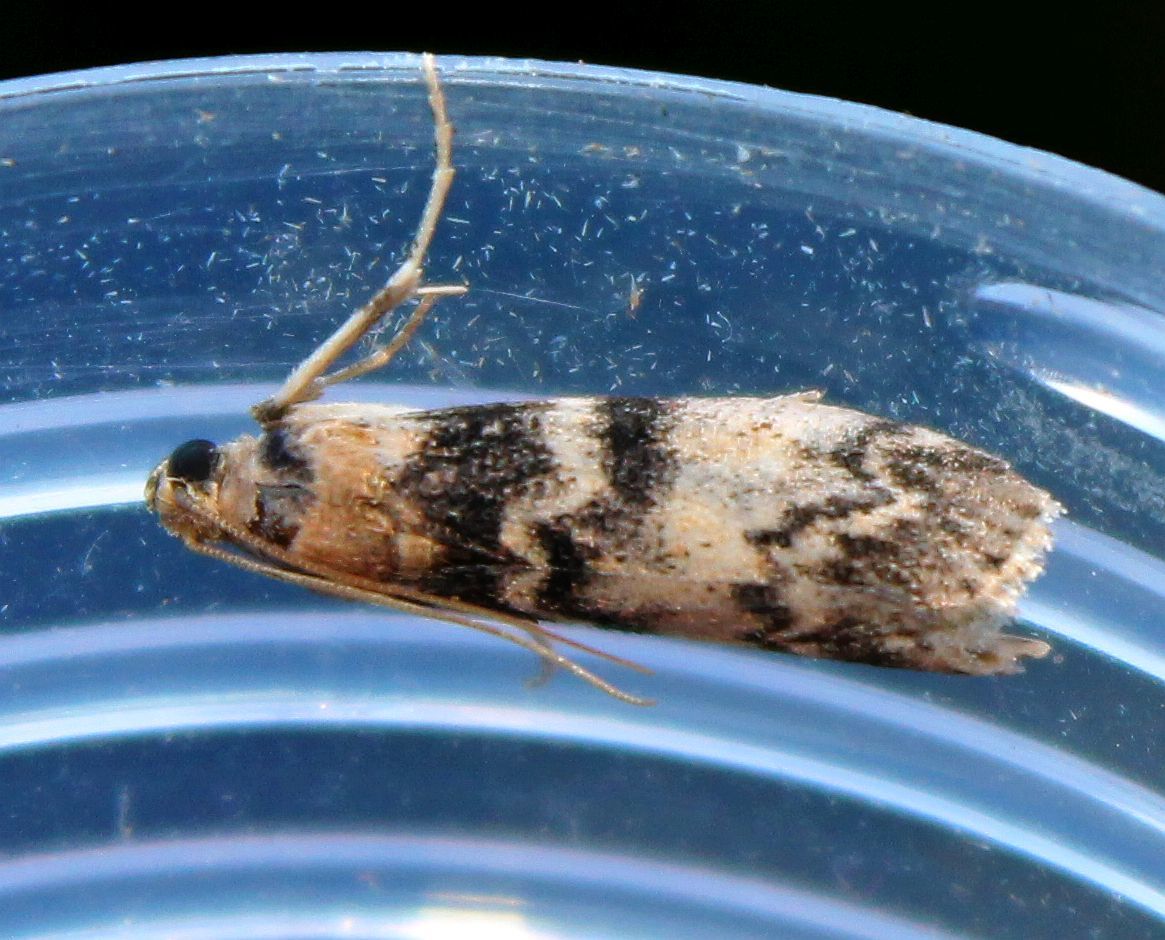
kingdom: Animalia
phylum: Arthropoda
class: Insecta
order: Lepidoptera
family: Pyralidae
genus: Euzophera
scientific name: Euzophera pinguis
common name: Ash-bark knot-horn
